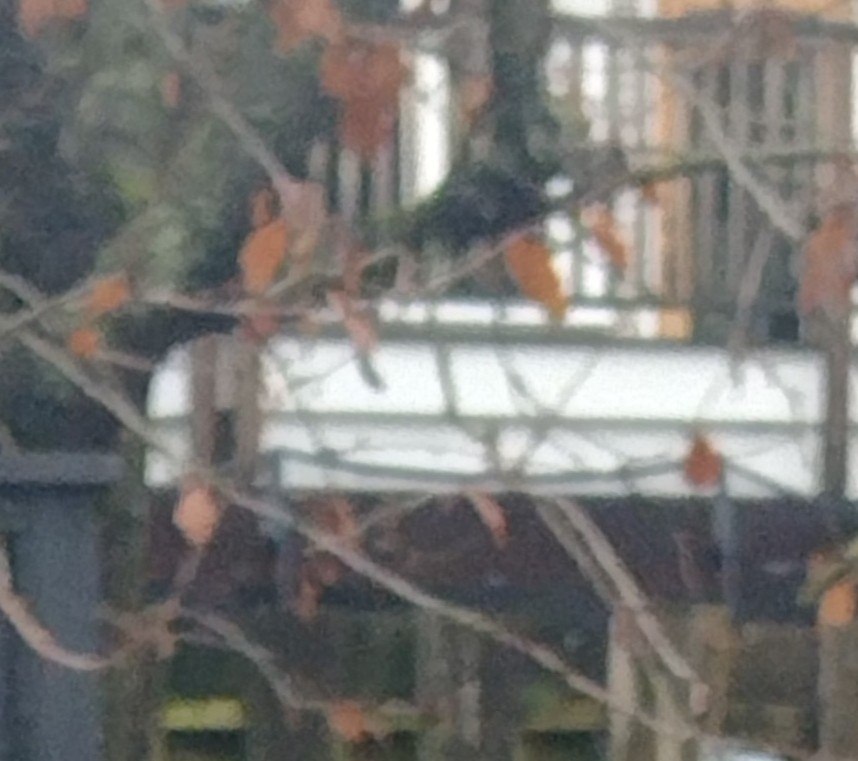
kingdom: Animalia
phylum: Chordata
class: Mammalia
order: Rodentia
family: Sciuridae
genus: Sciurus
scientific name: Sciurus carolinensis
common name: Eastern gray squirrel
